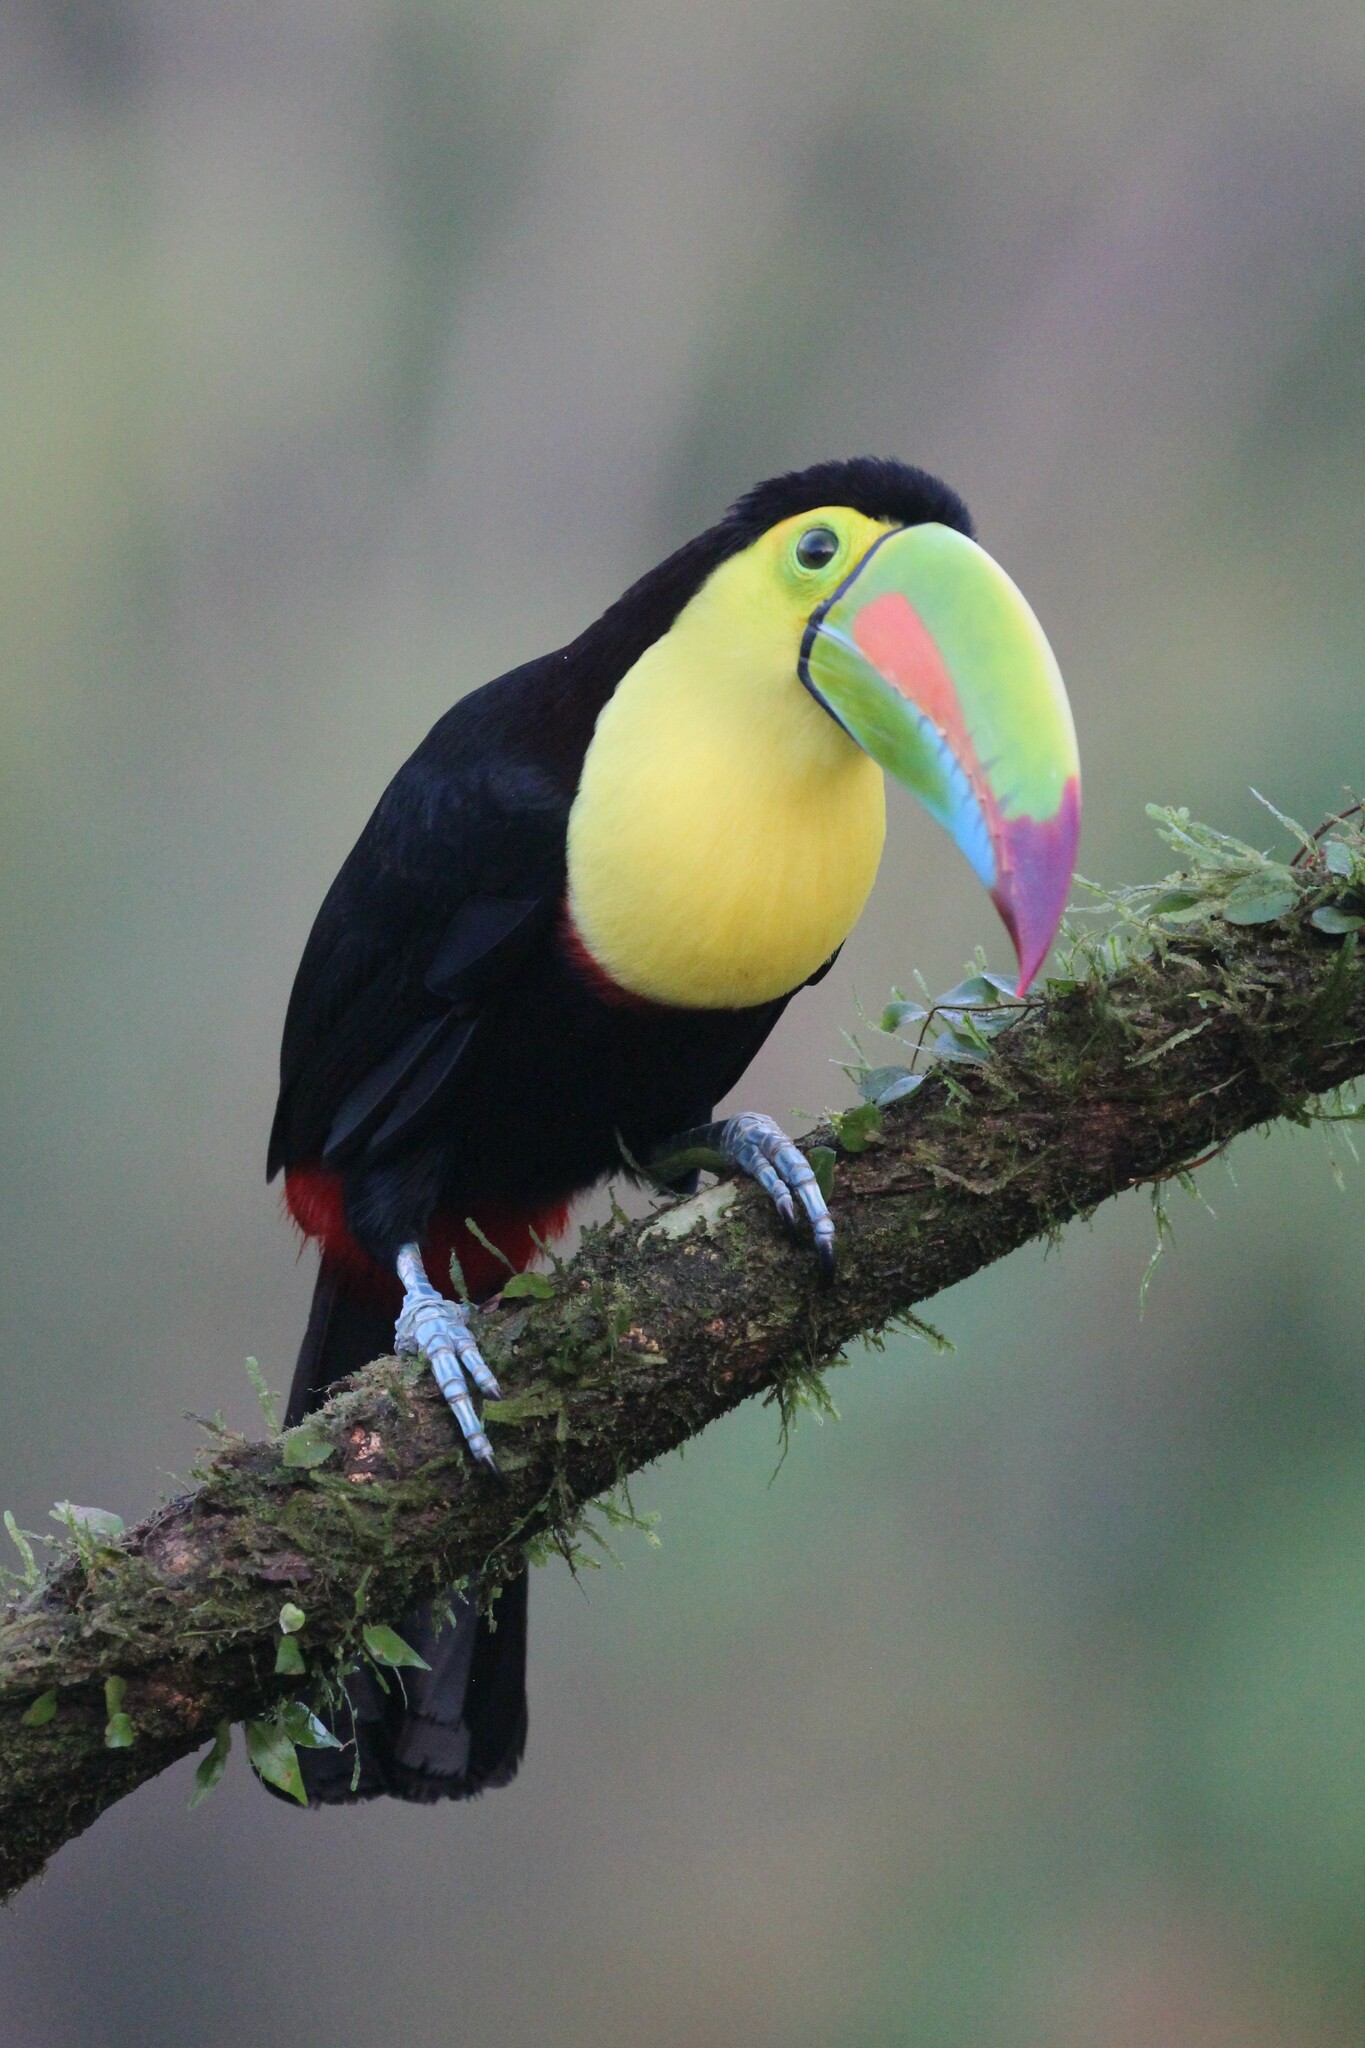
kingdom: Animalia
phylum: Chordata
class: Aves
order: Piciformes
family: Ramphastidae
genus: Ramphastos
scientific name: Ramphastos sulfuratus
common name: Keel-billed toucan
